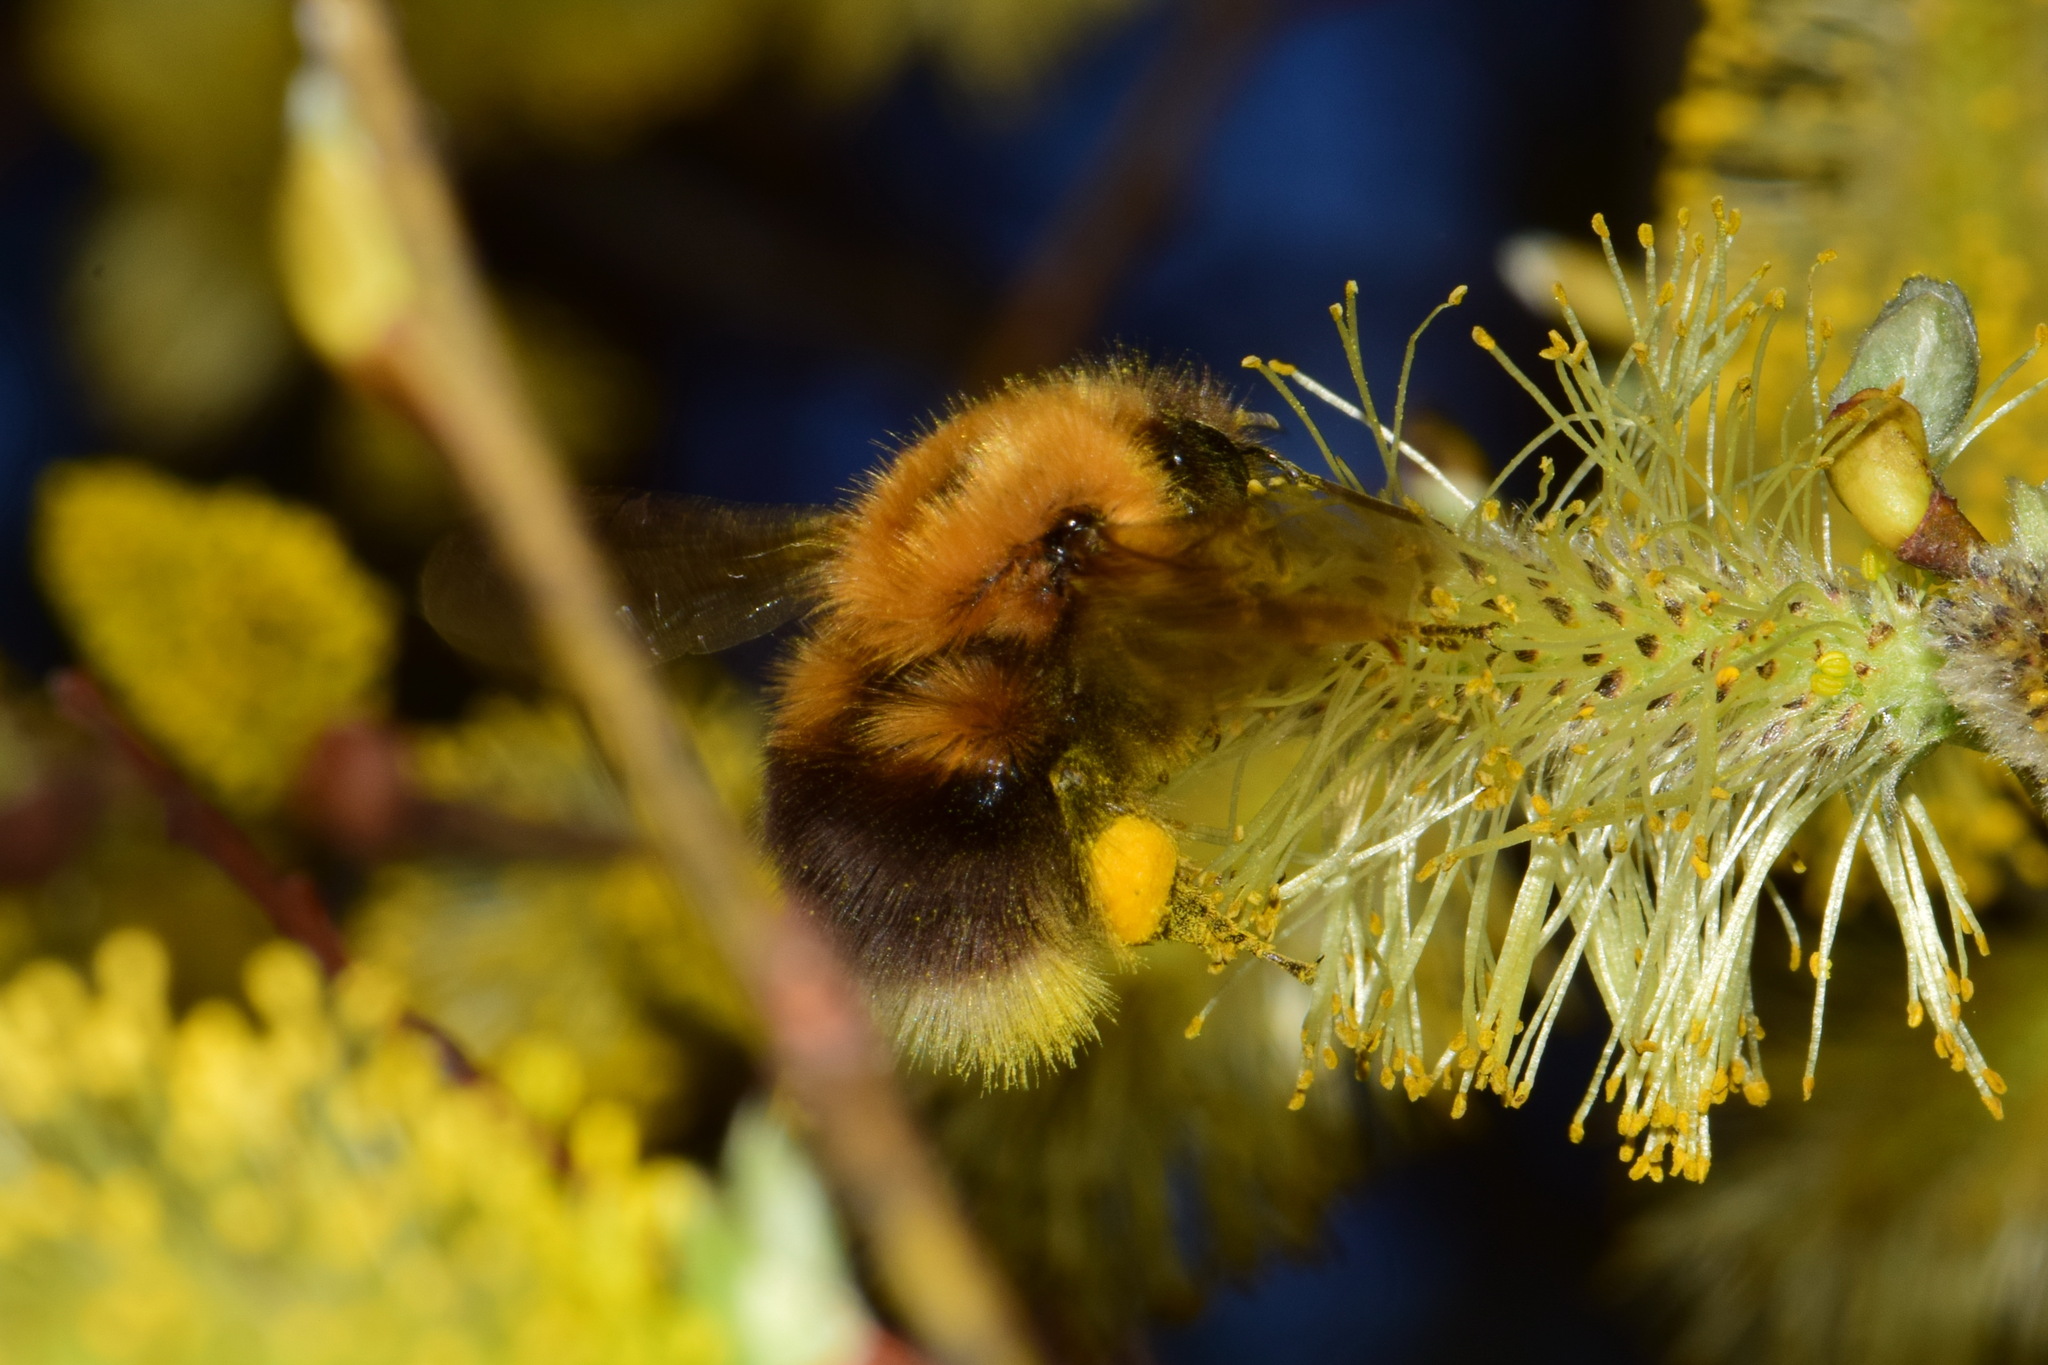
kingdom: Animalia
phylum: Arthropoda
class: Insecta
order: Hymenoptera
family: Apidae
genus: Bombus
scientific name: Bombus hypnorum
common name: New garden bumblebee
